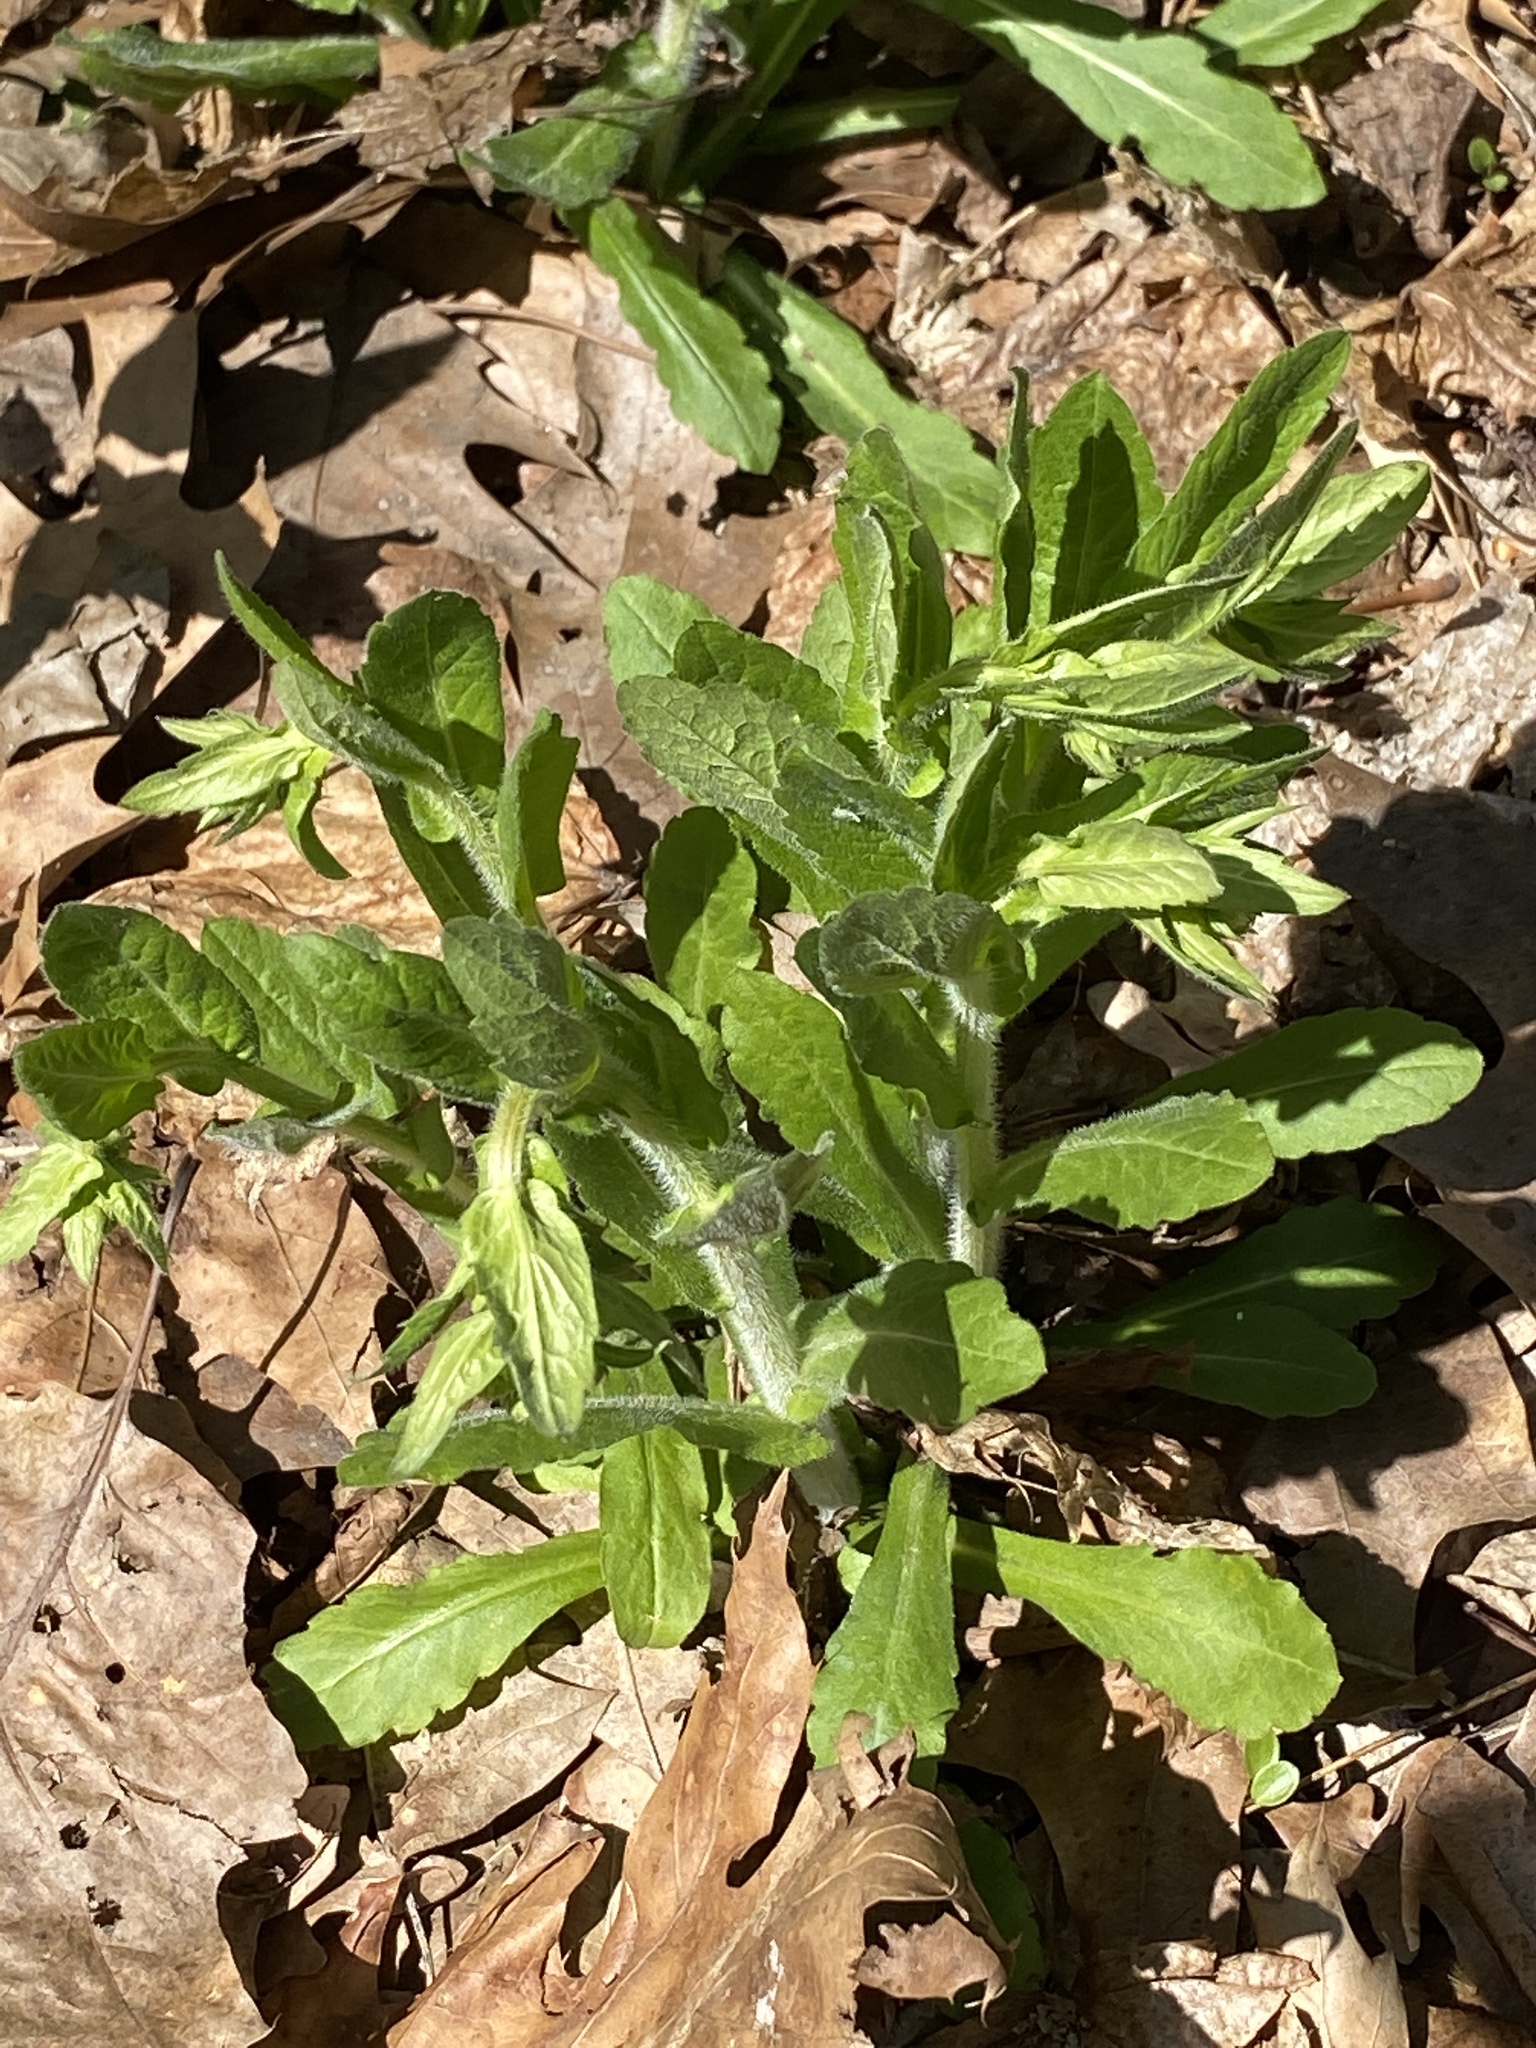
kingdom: Plantae
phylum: Tracheophyta
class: Magnoliopsida
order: Asterales
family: Asteraceae
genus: Erigeron
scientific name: Erigeron philadelphicus
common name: Robin's-plantain
